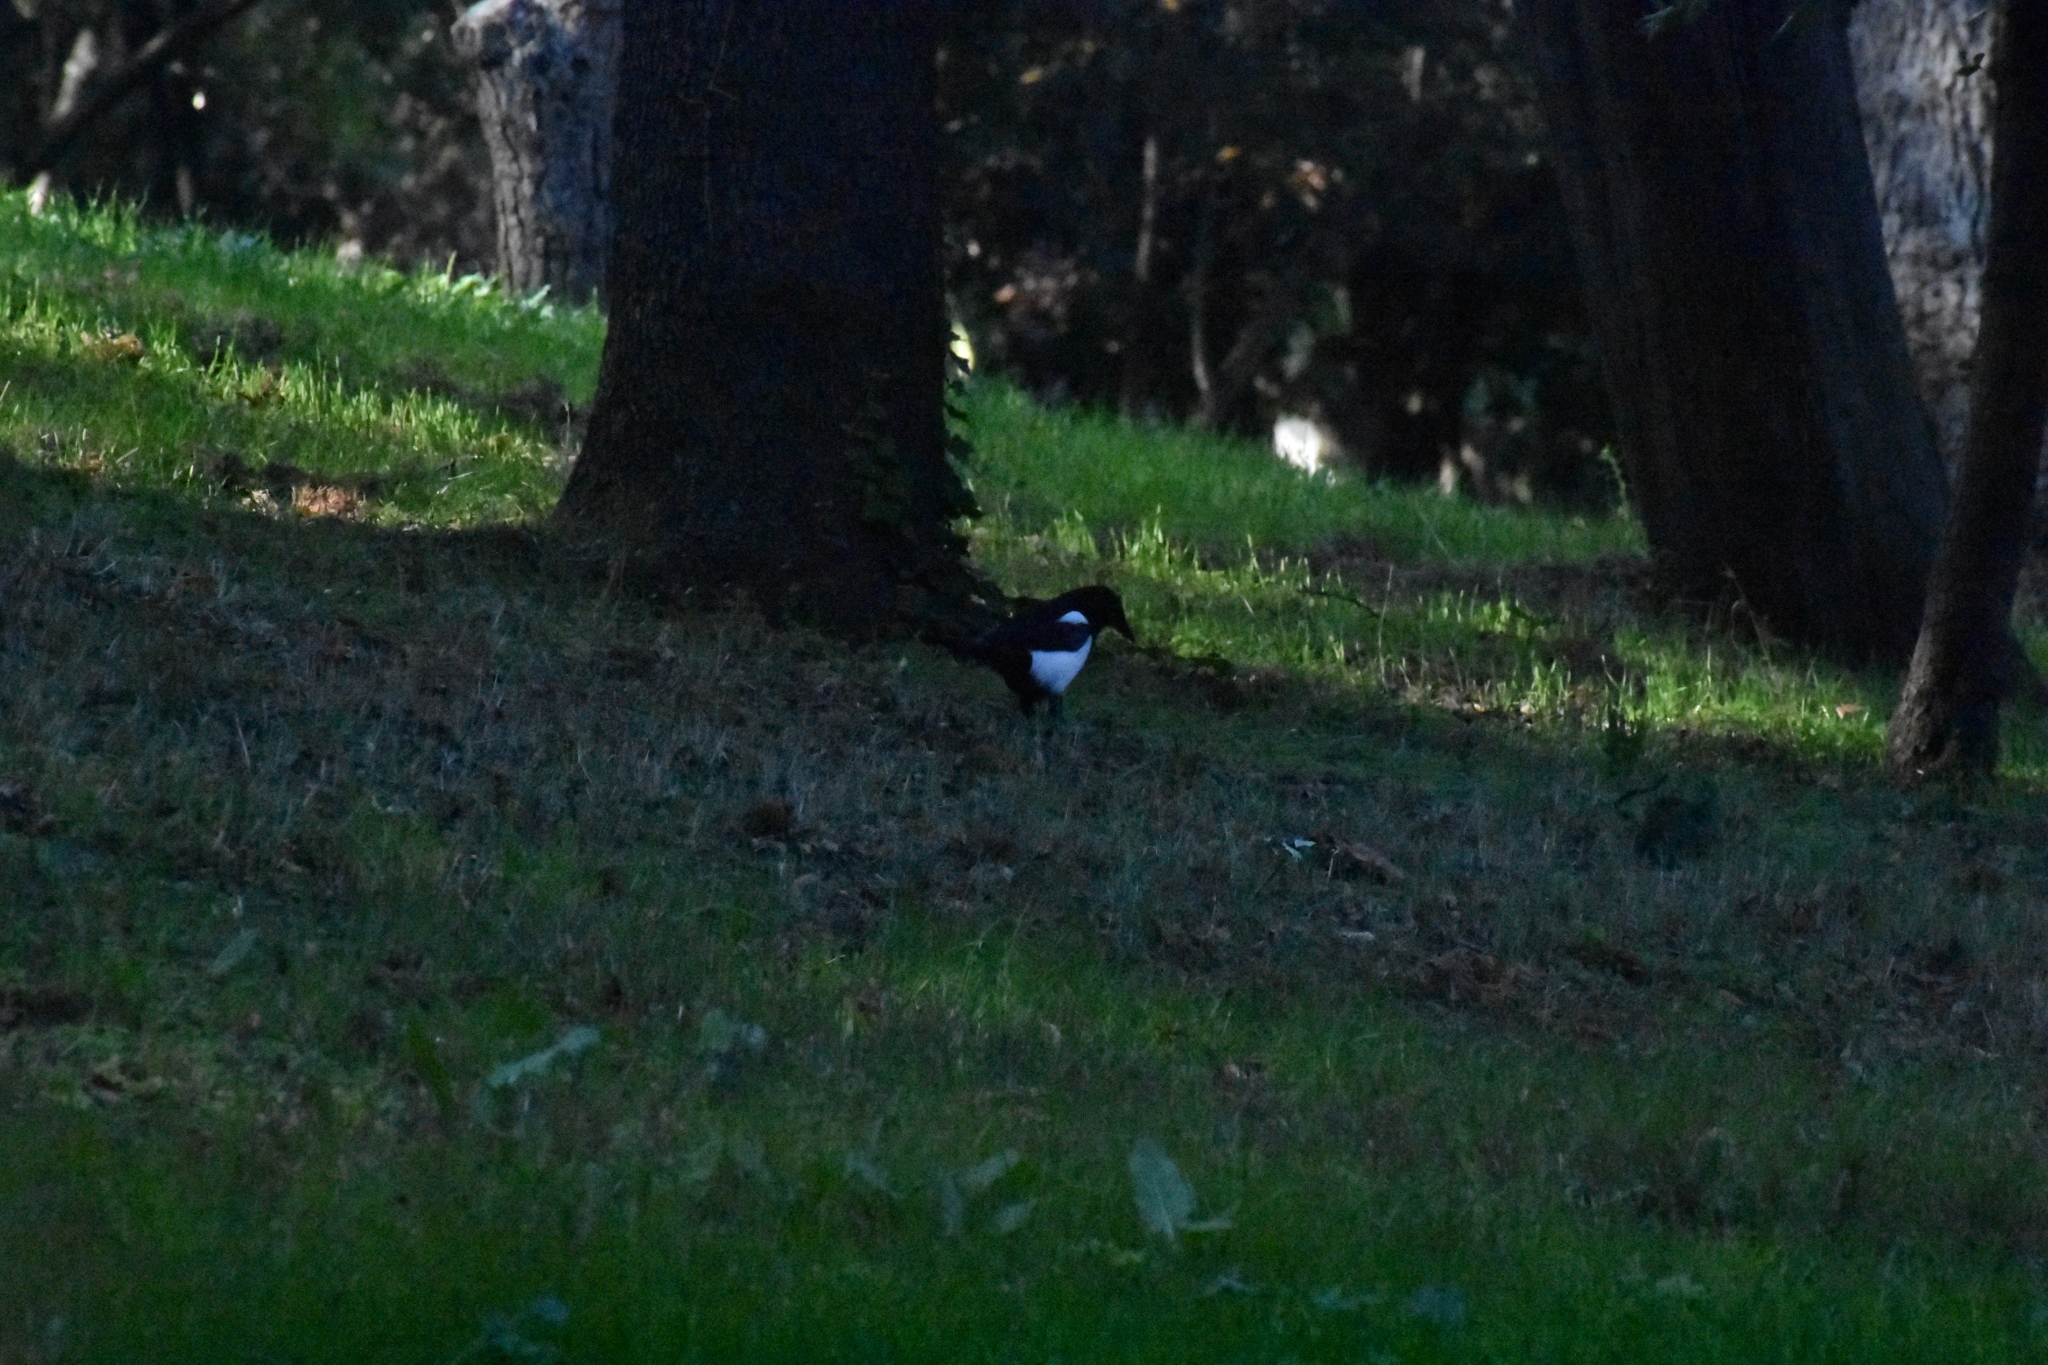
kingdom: Animalia
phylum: Chordata
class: Aves
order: Passeriformes
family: Corvidae
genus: Pica
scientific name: Pica pica
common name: Eurasian magpie
